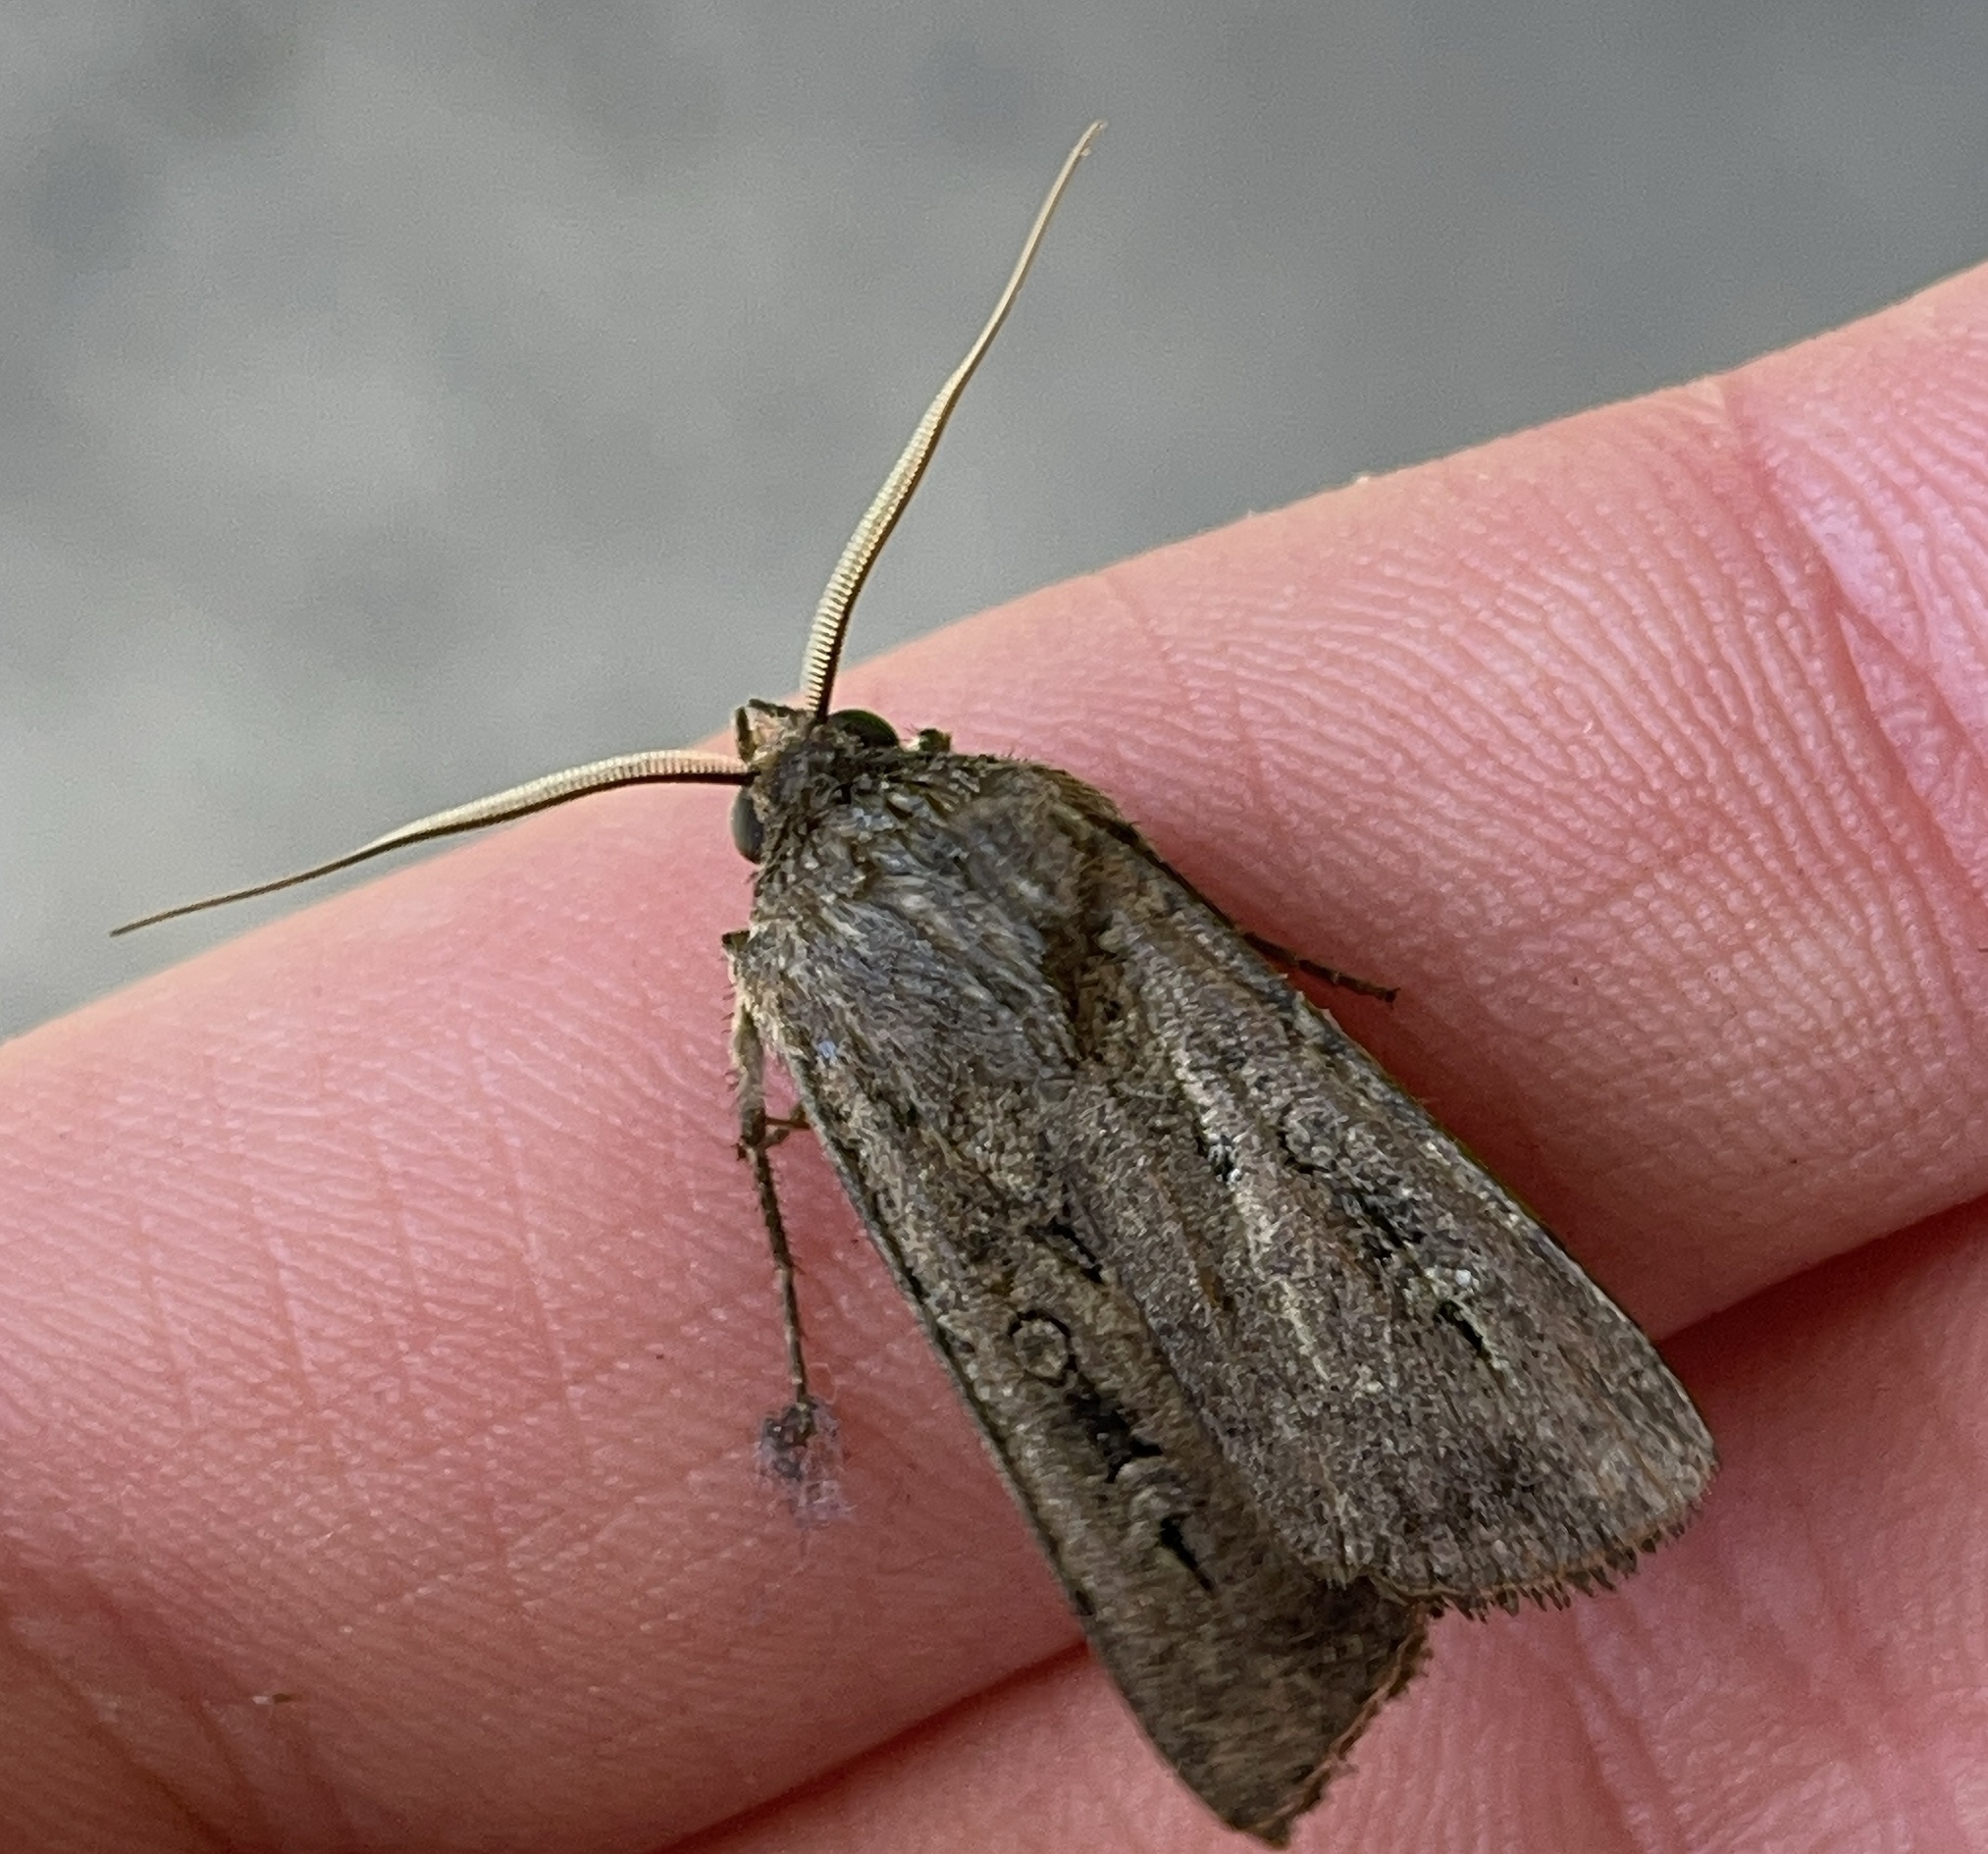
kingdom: Animalia
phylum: Arthropoda
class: Insecta
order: Lepidoptera
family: Noctuidae
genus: Agrotis
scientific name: Agrotis infusa
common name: Bogong moth
